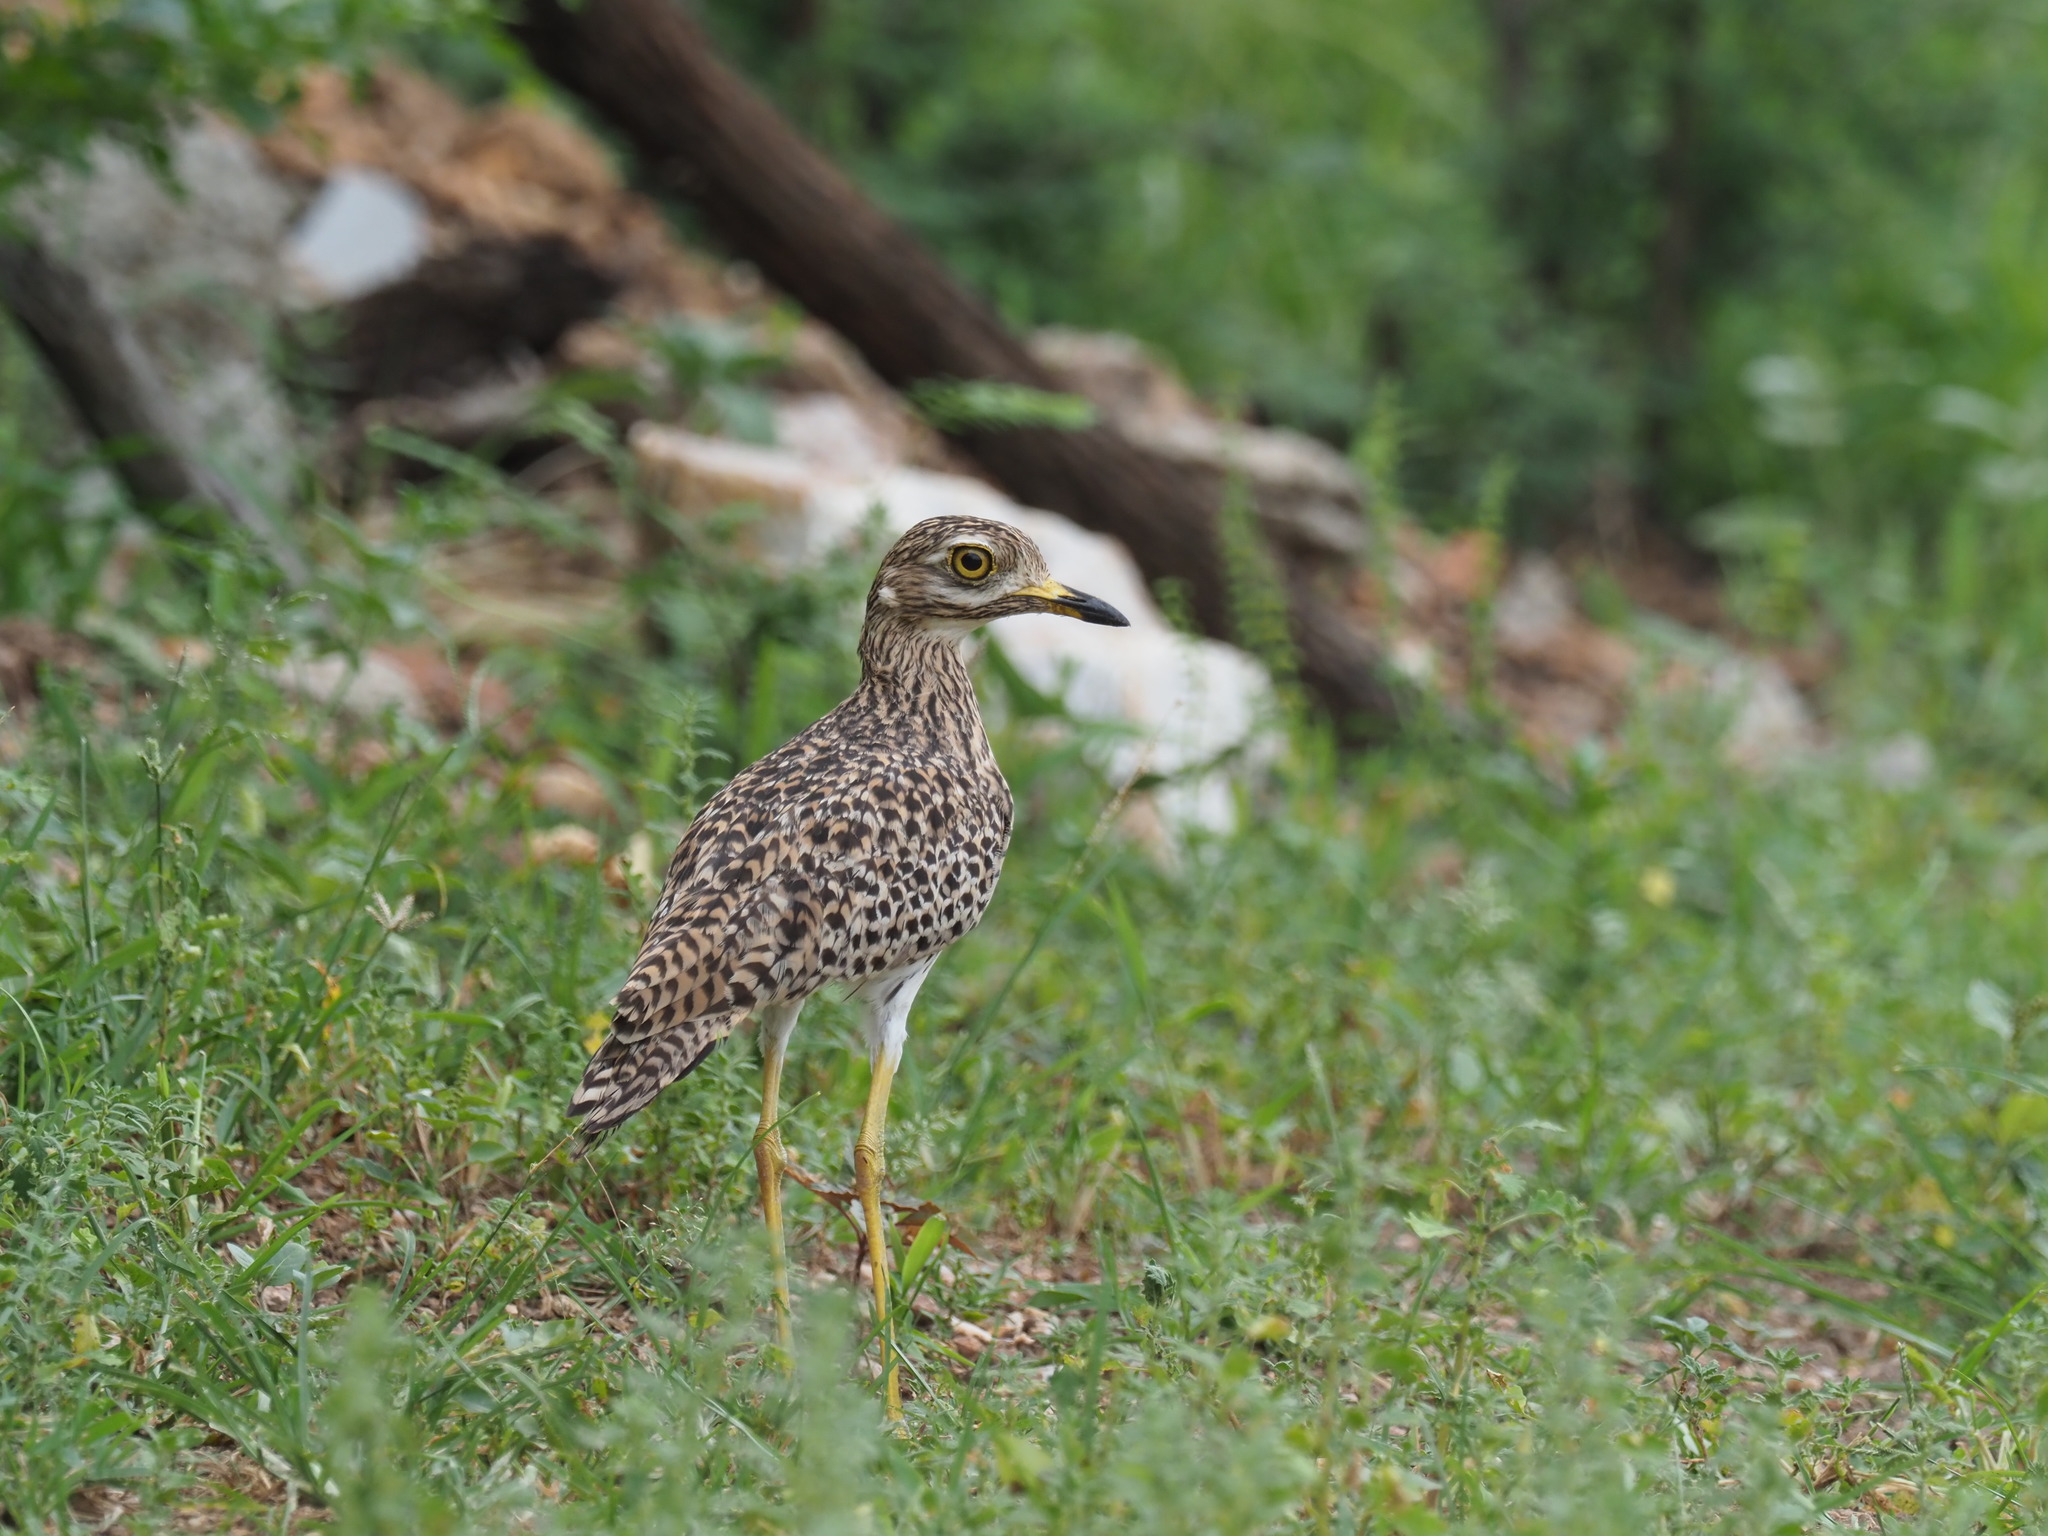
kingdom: Animalia
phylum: Chordata
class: Aves
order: Charadriiformes
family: Burhinidae
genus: Burhinus
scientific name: Burhinus capensis
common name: Spotted thick-knee
